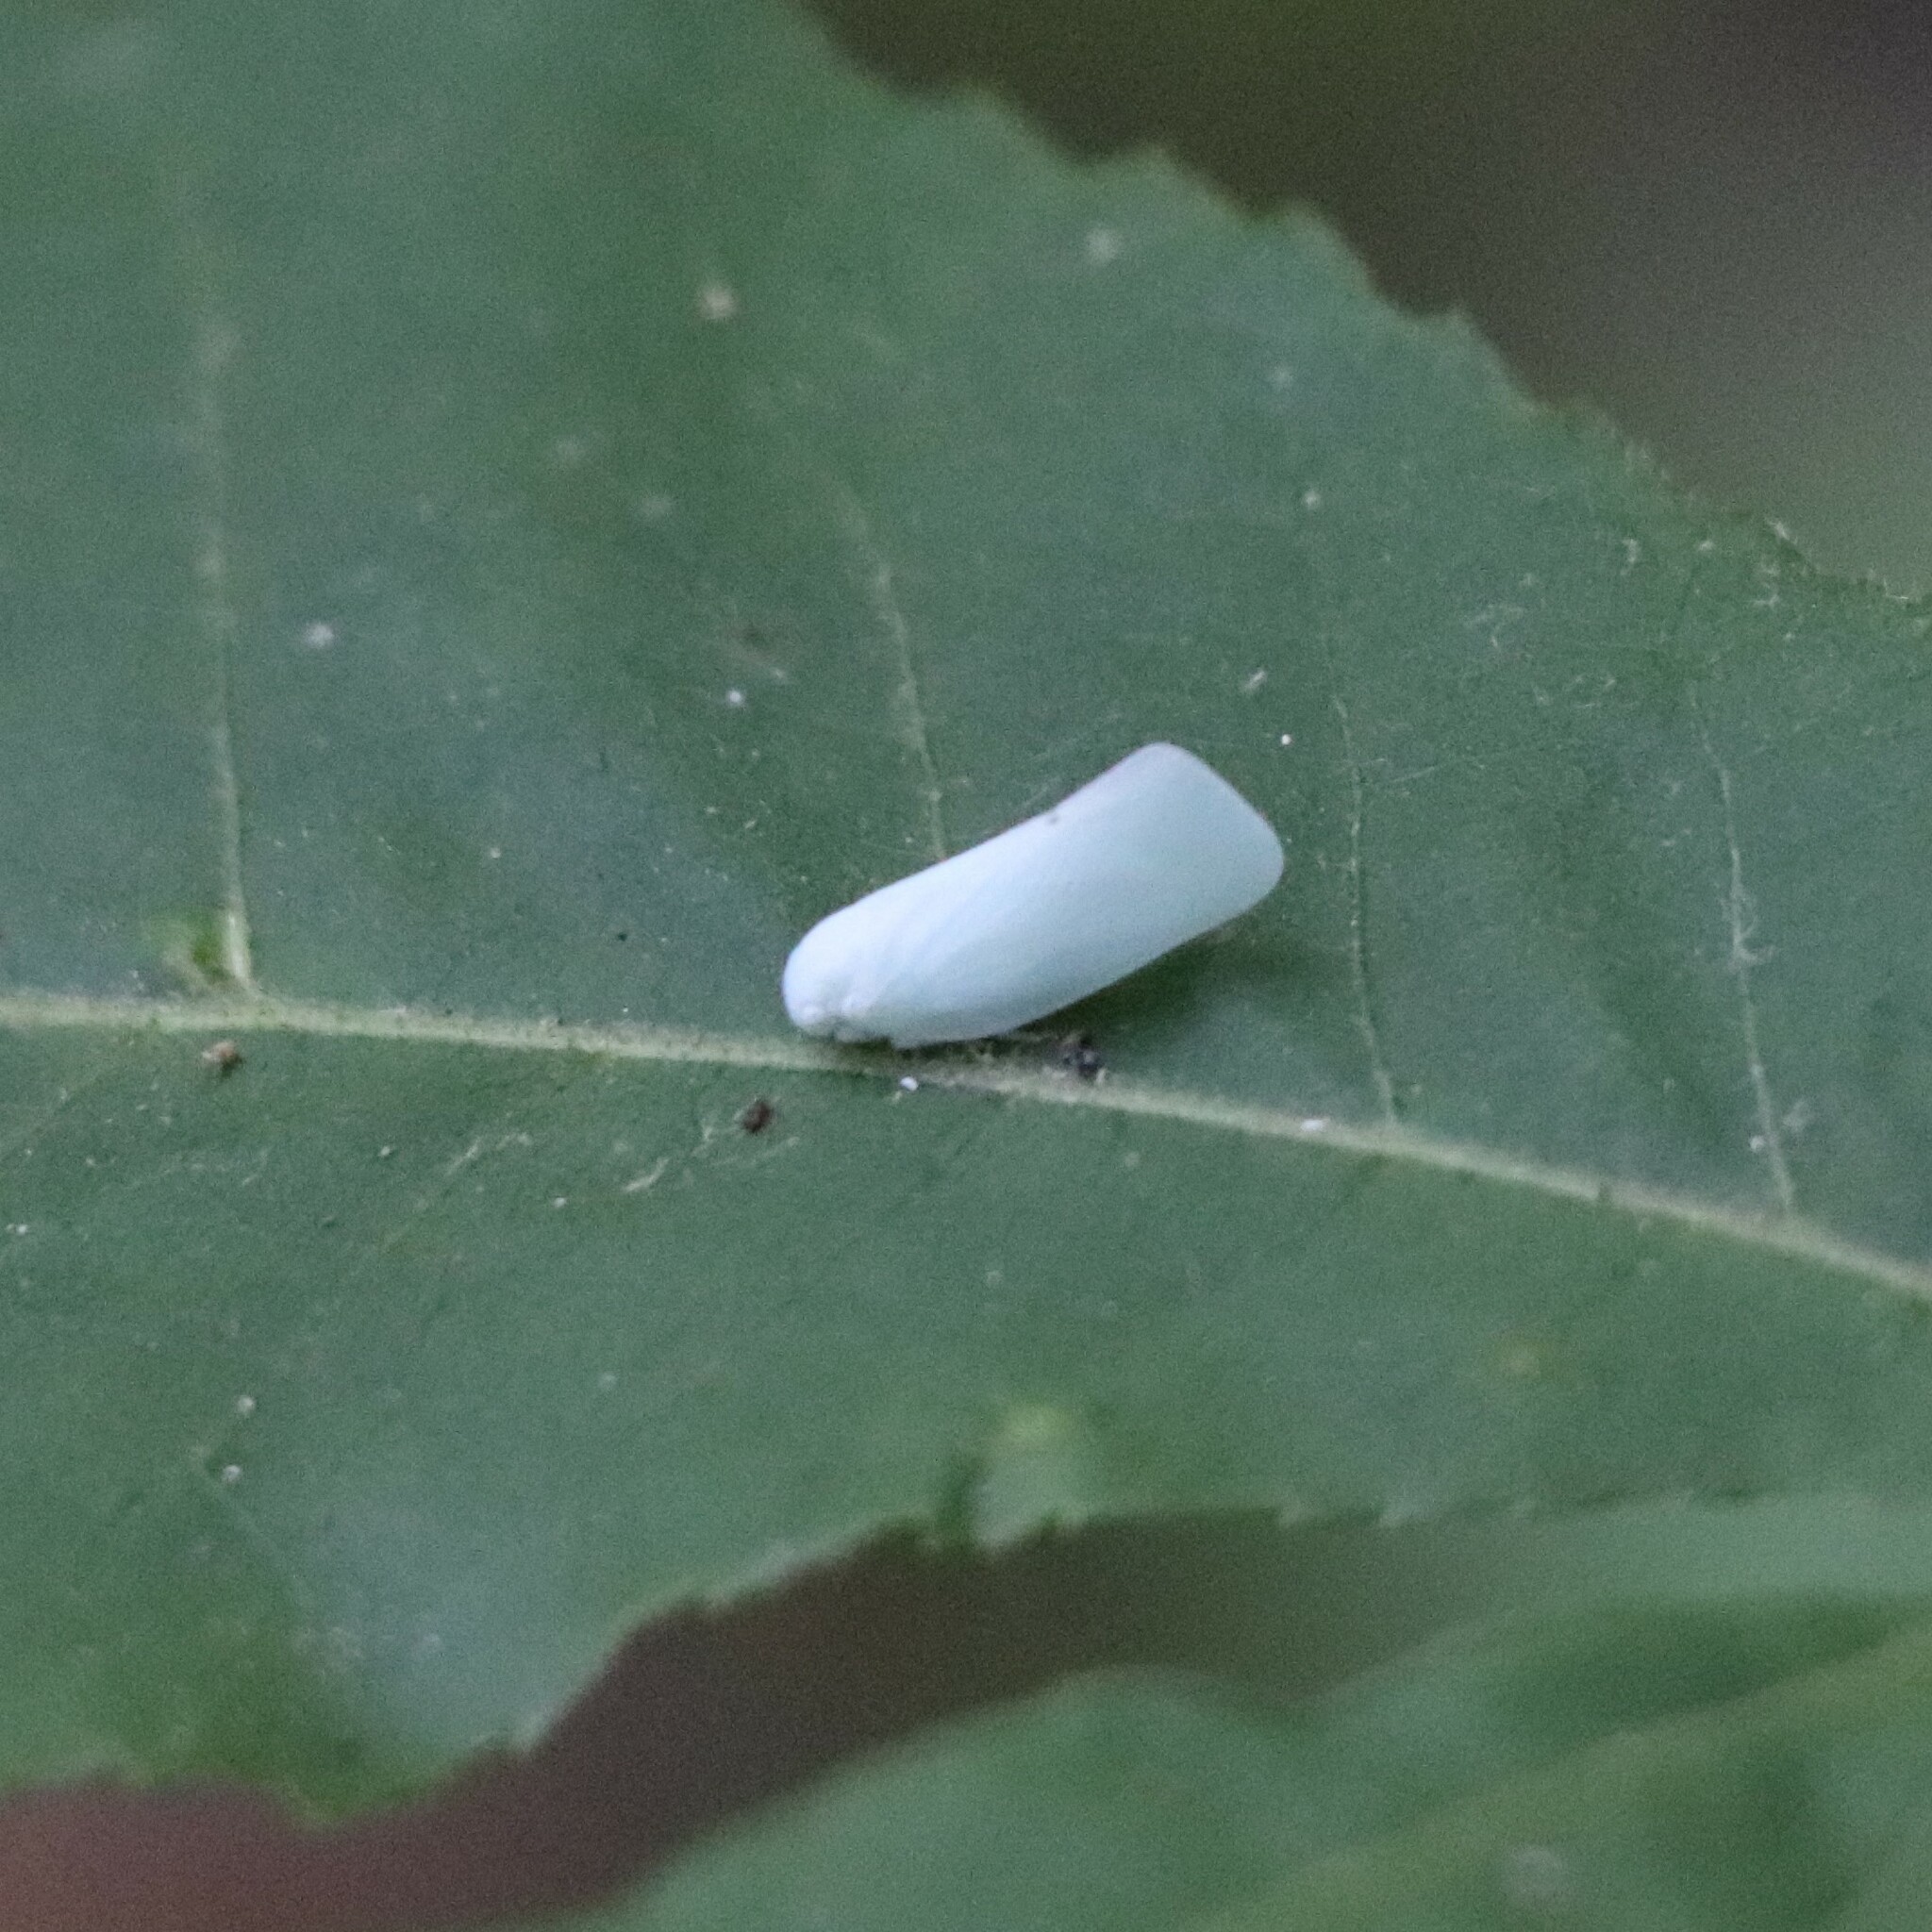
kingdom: Animalia
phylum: Arthropoda
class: Insecta
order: Hemiptera
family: Flatidae
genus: Flatormenis
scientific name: Flatormenis proxima
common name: Northern flatid planthopper
